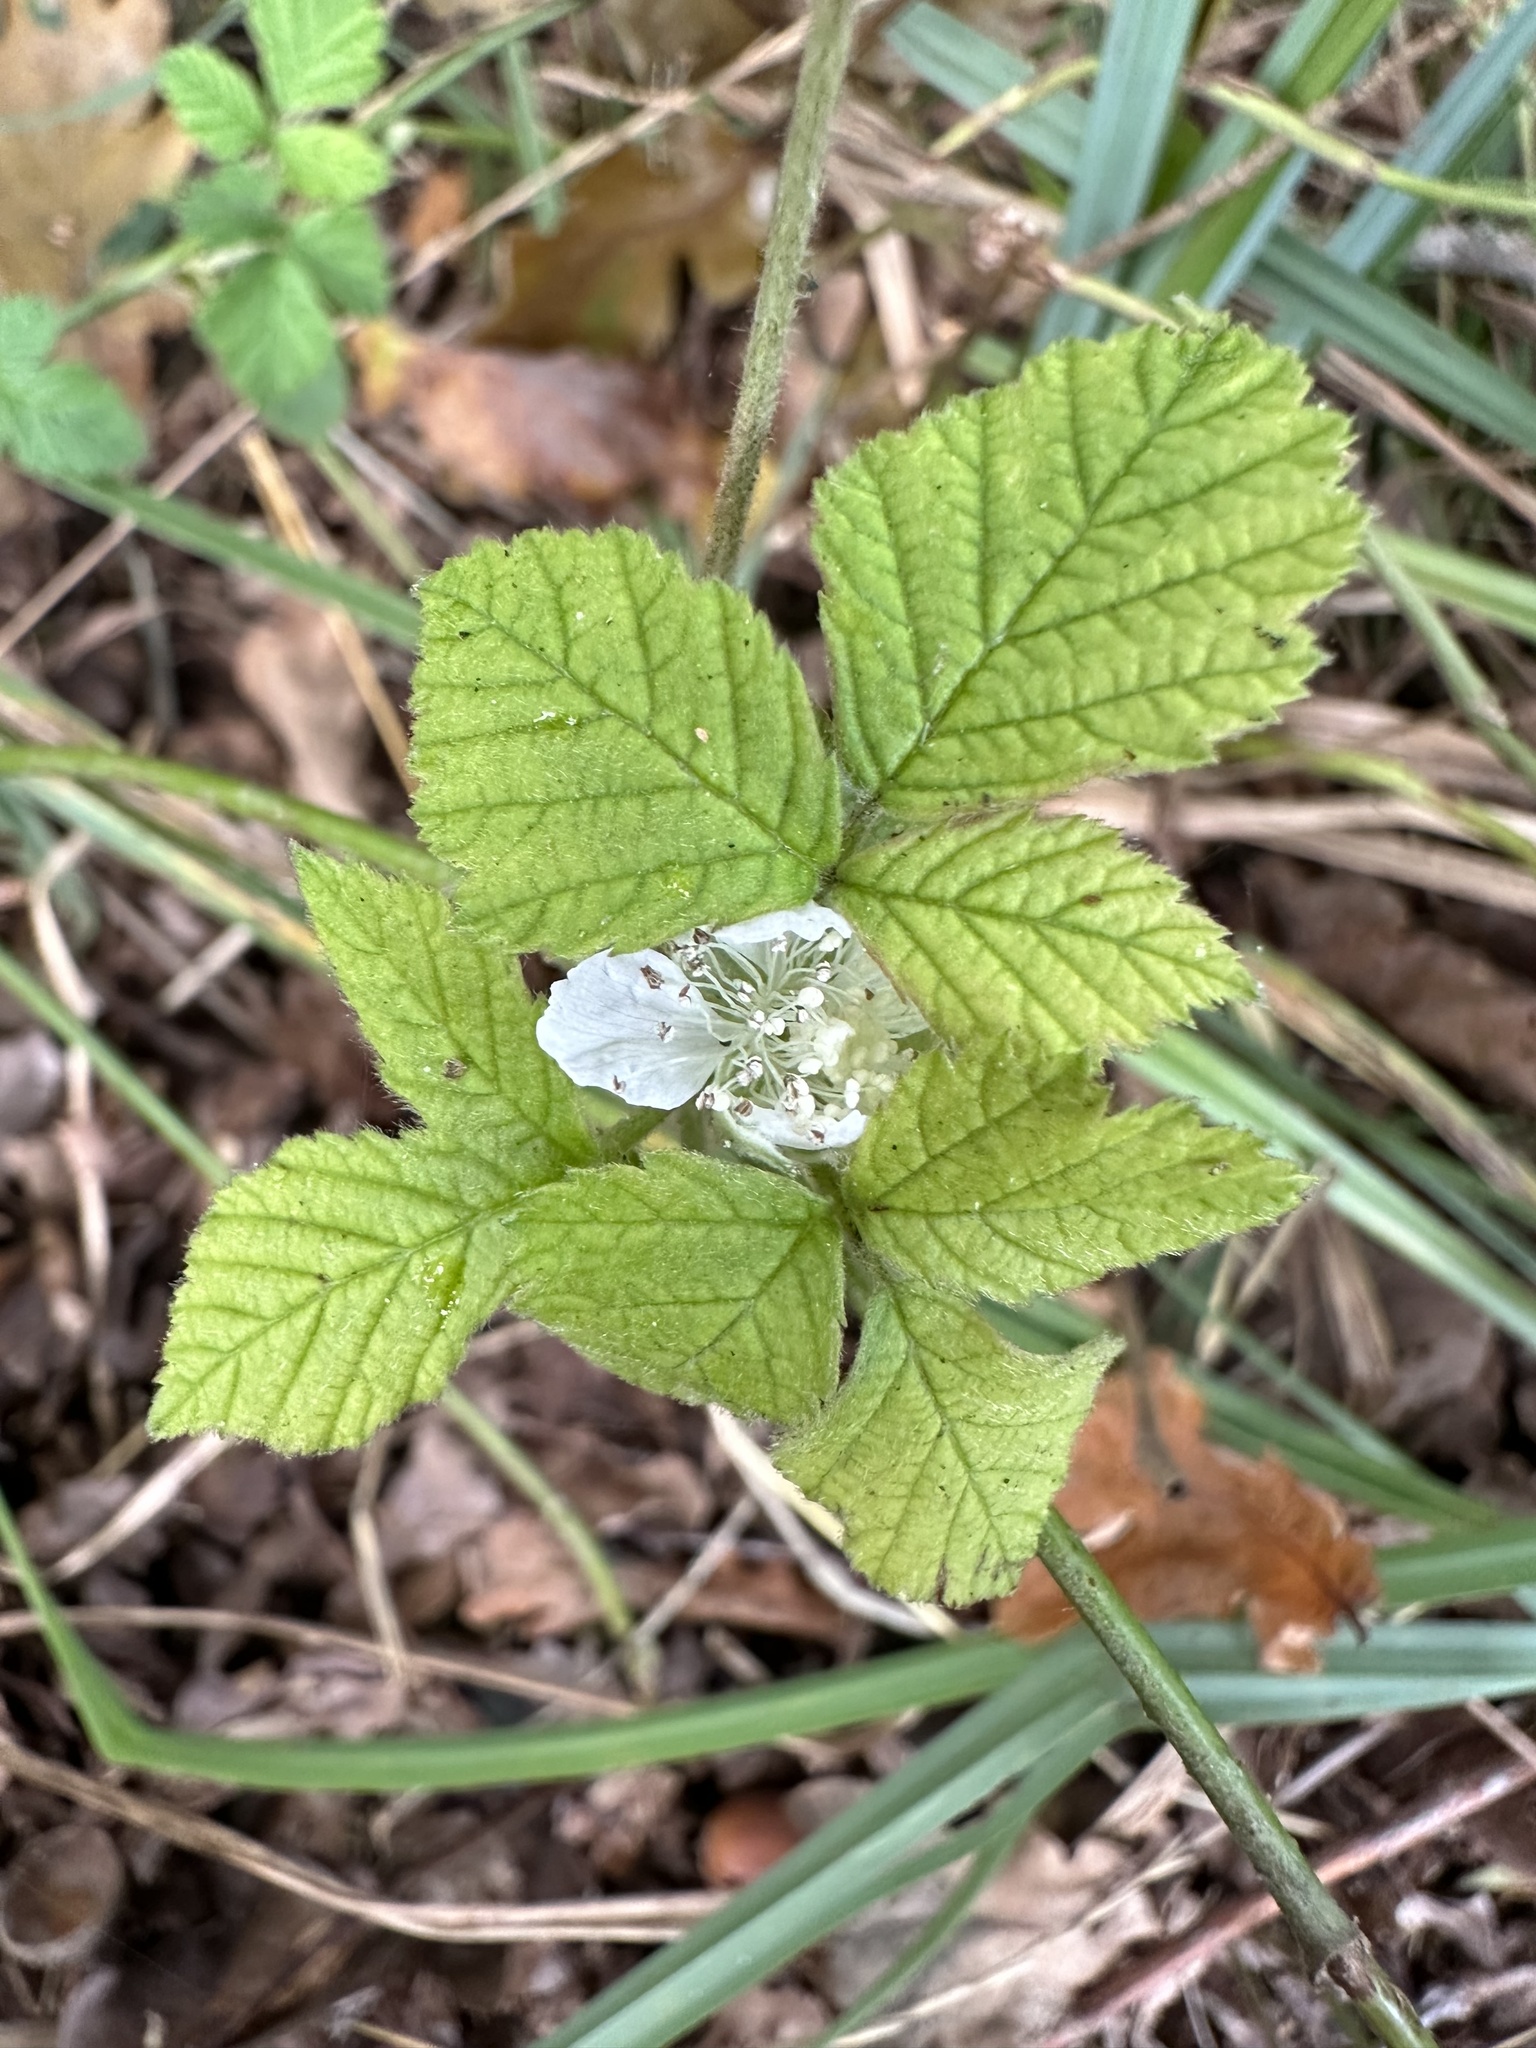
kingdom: Plantae
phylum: Tracheophyta
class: Magnoliopsida
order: Rosales
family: Rosaceae
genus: Rubus
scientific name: Rubus caesius
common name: Dewberry
